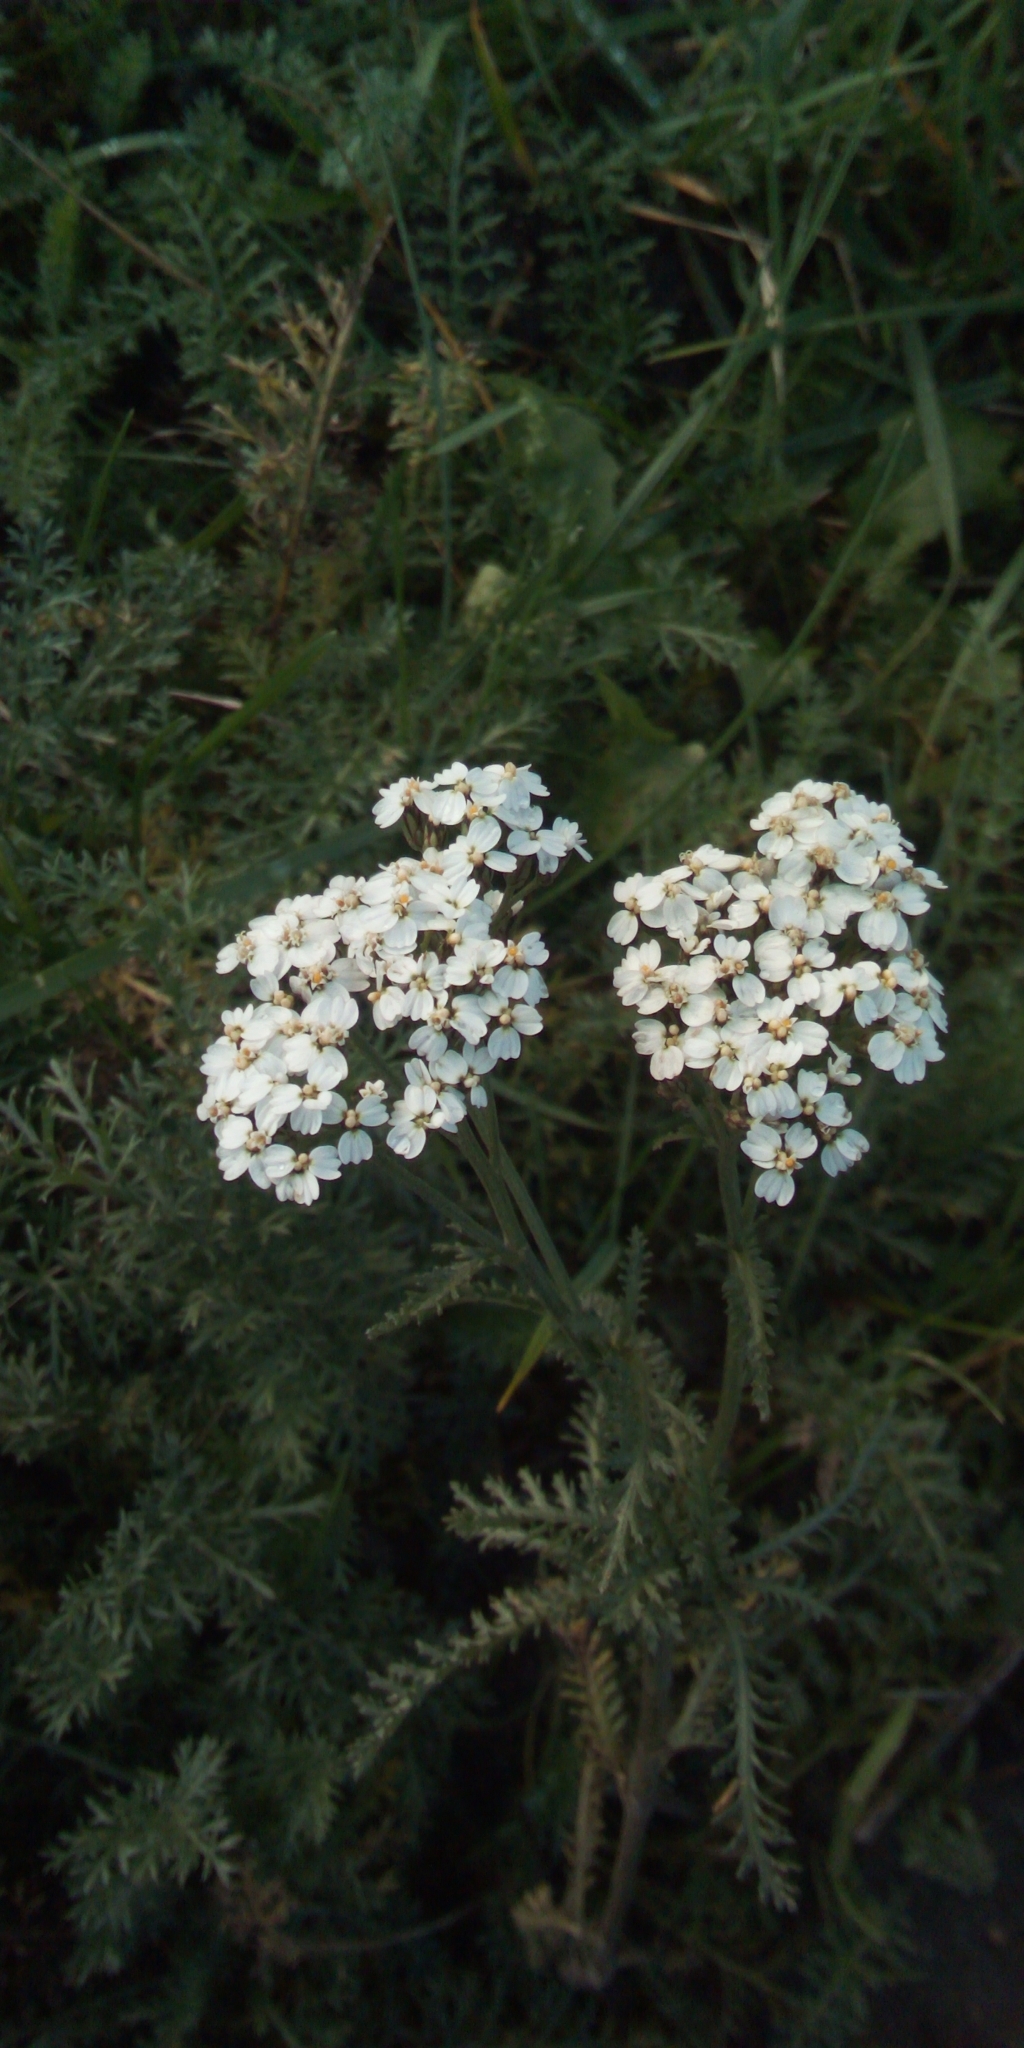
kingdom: Plantae
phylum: Tracheophyta
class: Magnoliopsida
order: Asterales
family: Asteraceae
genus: Achillea
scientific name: Achillea millefolium
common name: Yarrow
